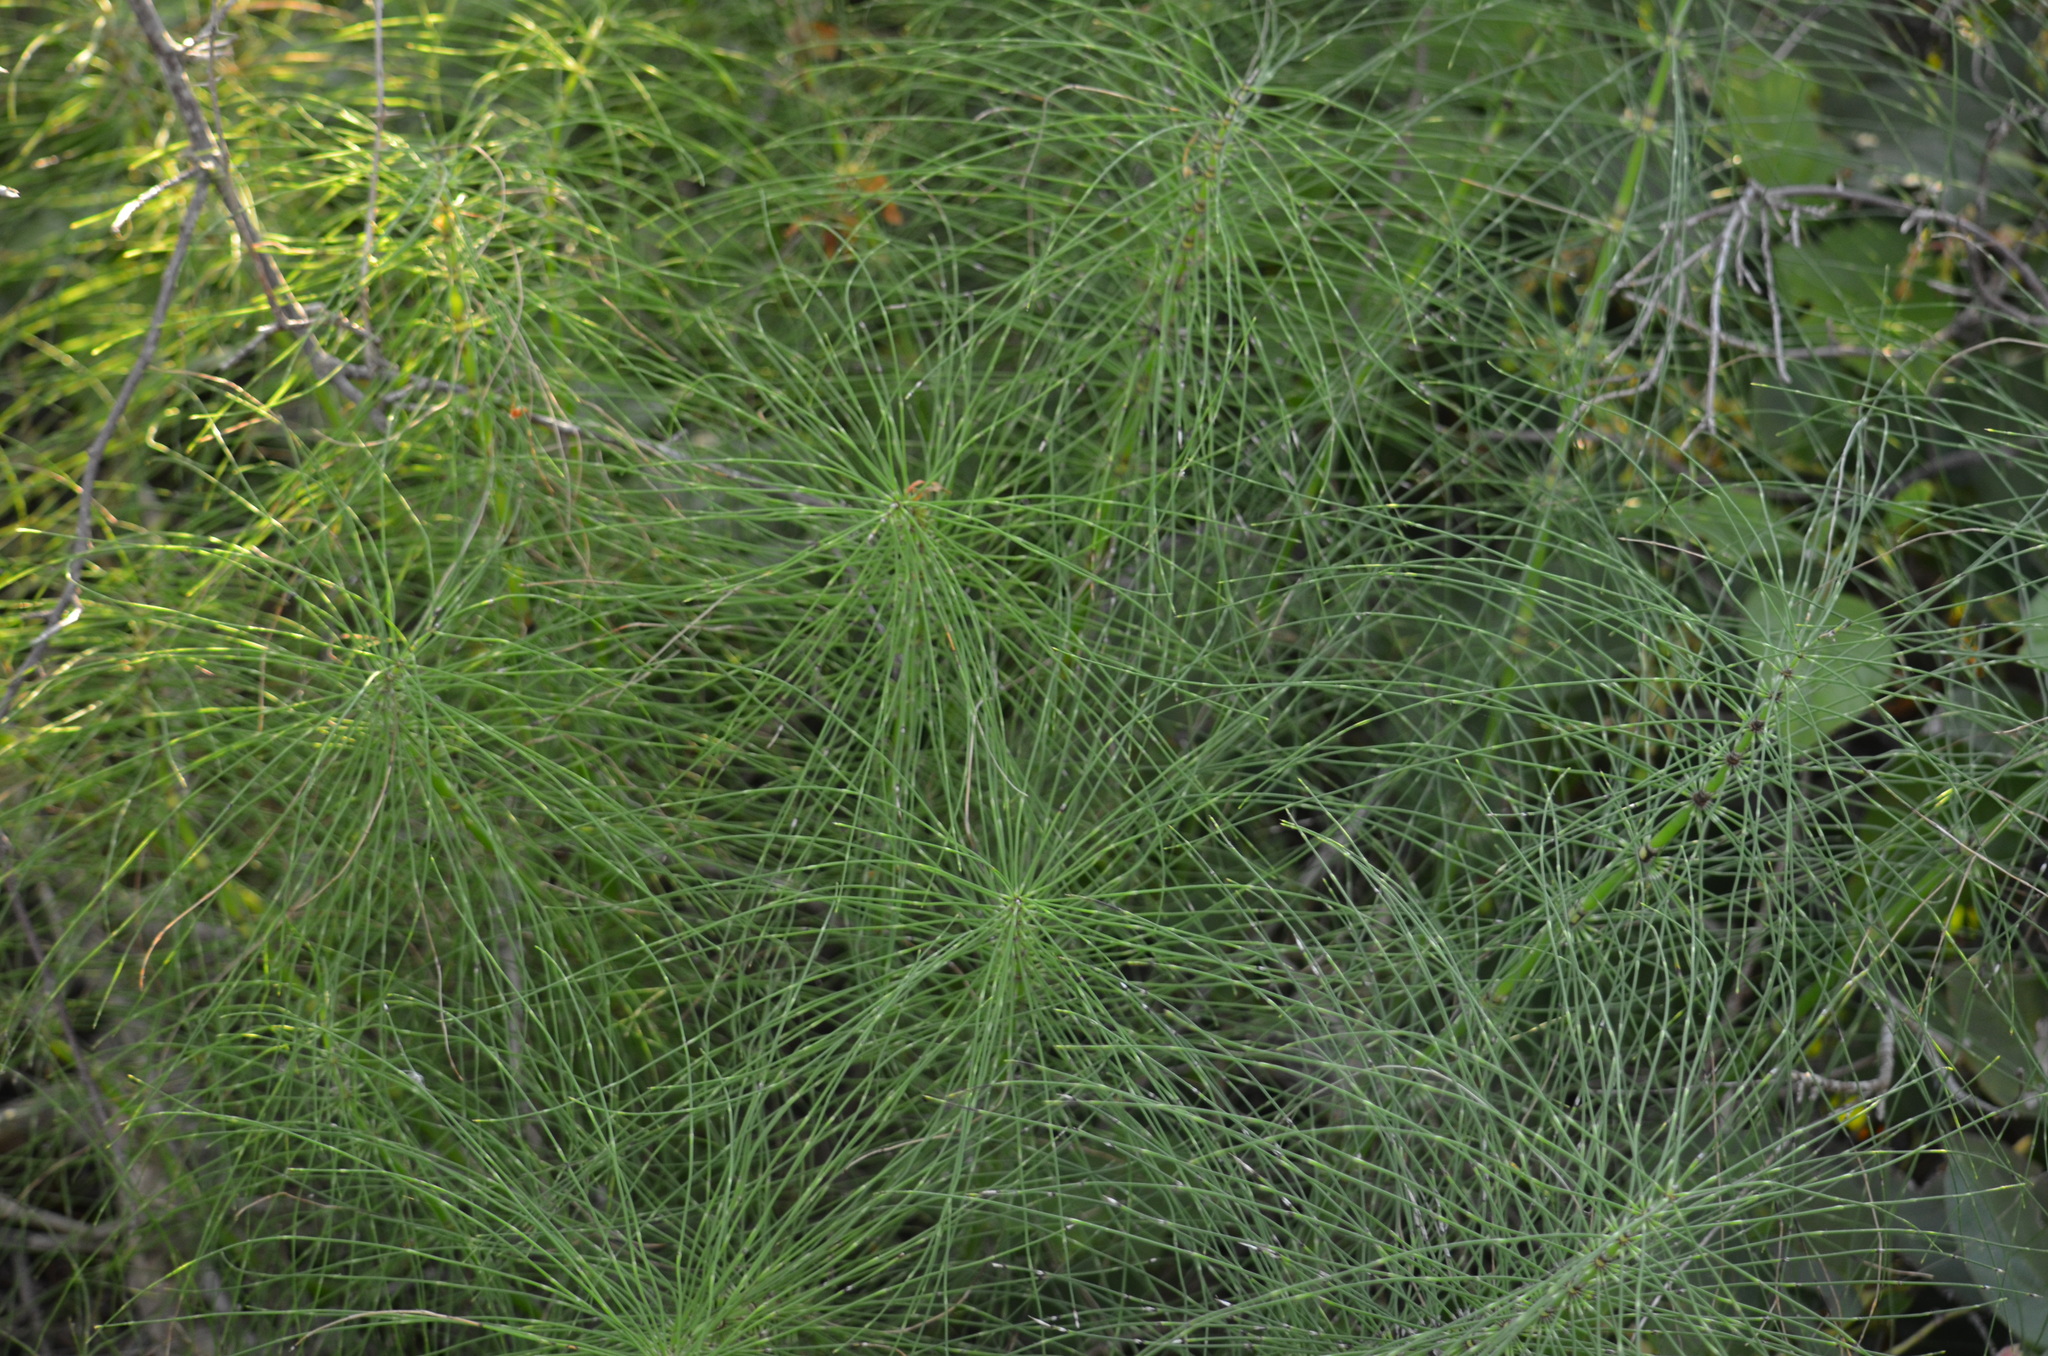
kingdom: Plantae
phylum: Tracheophyta
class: Polypodiopsida
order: Equisetales
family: Equisetaceae
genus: Equisetum
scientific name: Equisetum telmateia
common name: Great horsetail
